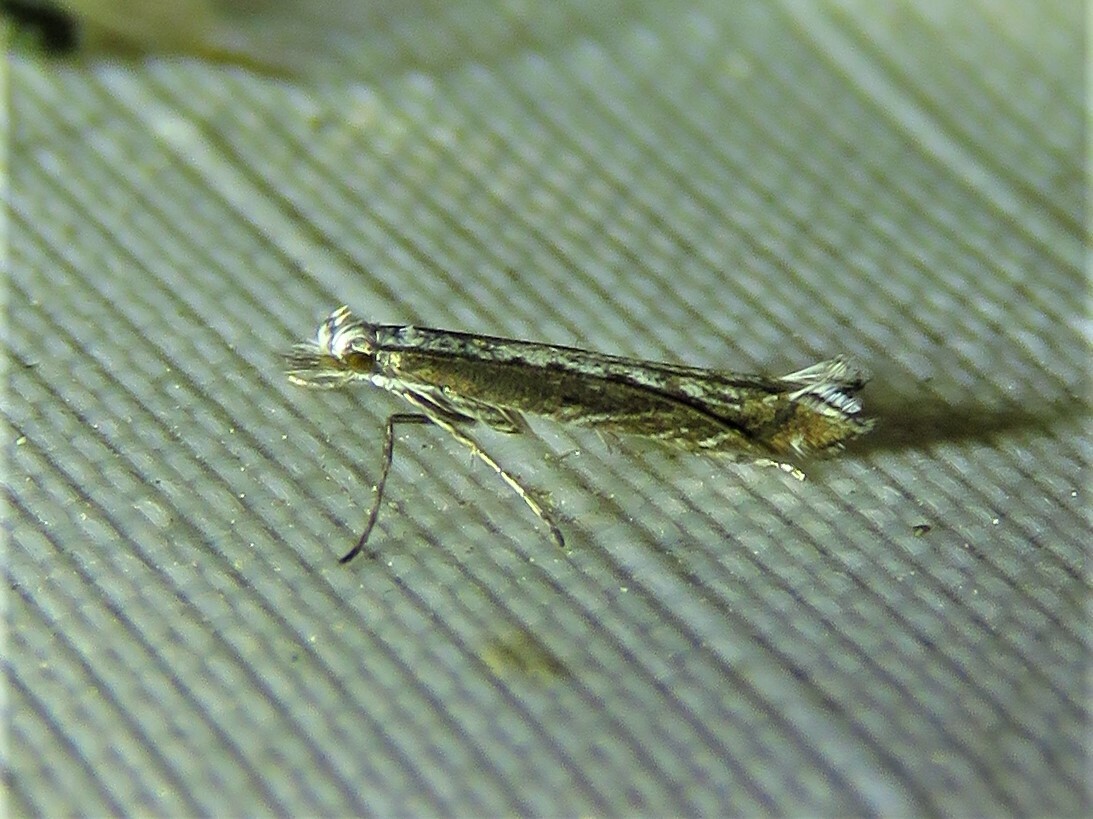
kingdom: Plantae
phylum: Rhodophyta
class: Florideophyceae
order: Gracilariales
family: Gracilariaceae
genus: Gracilaria
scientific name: Gracilaria
